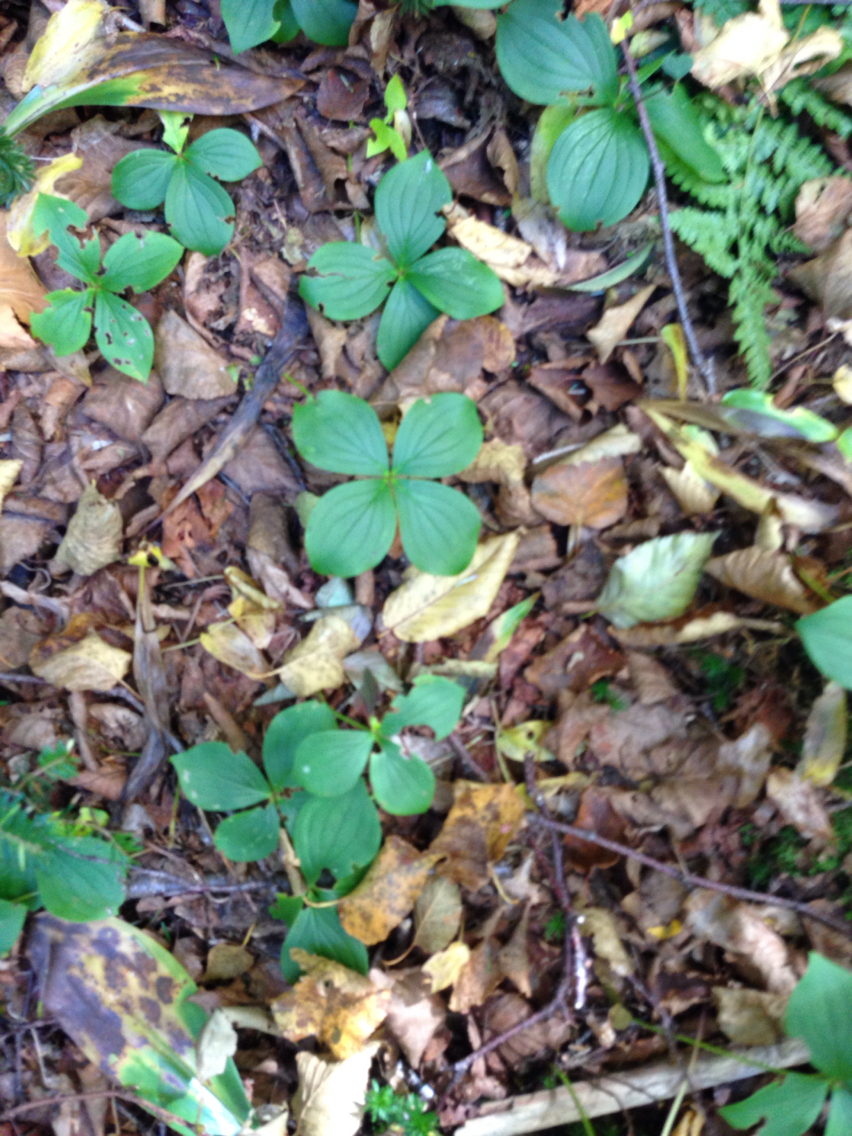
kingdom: Plantae
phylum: Tracheophyta
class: Magnoliopsida
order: Cornales
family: Cornaceae
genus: Cornus
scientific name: Cornus canadensis
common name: Creeping dogwood
